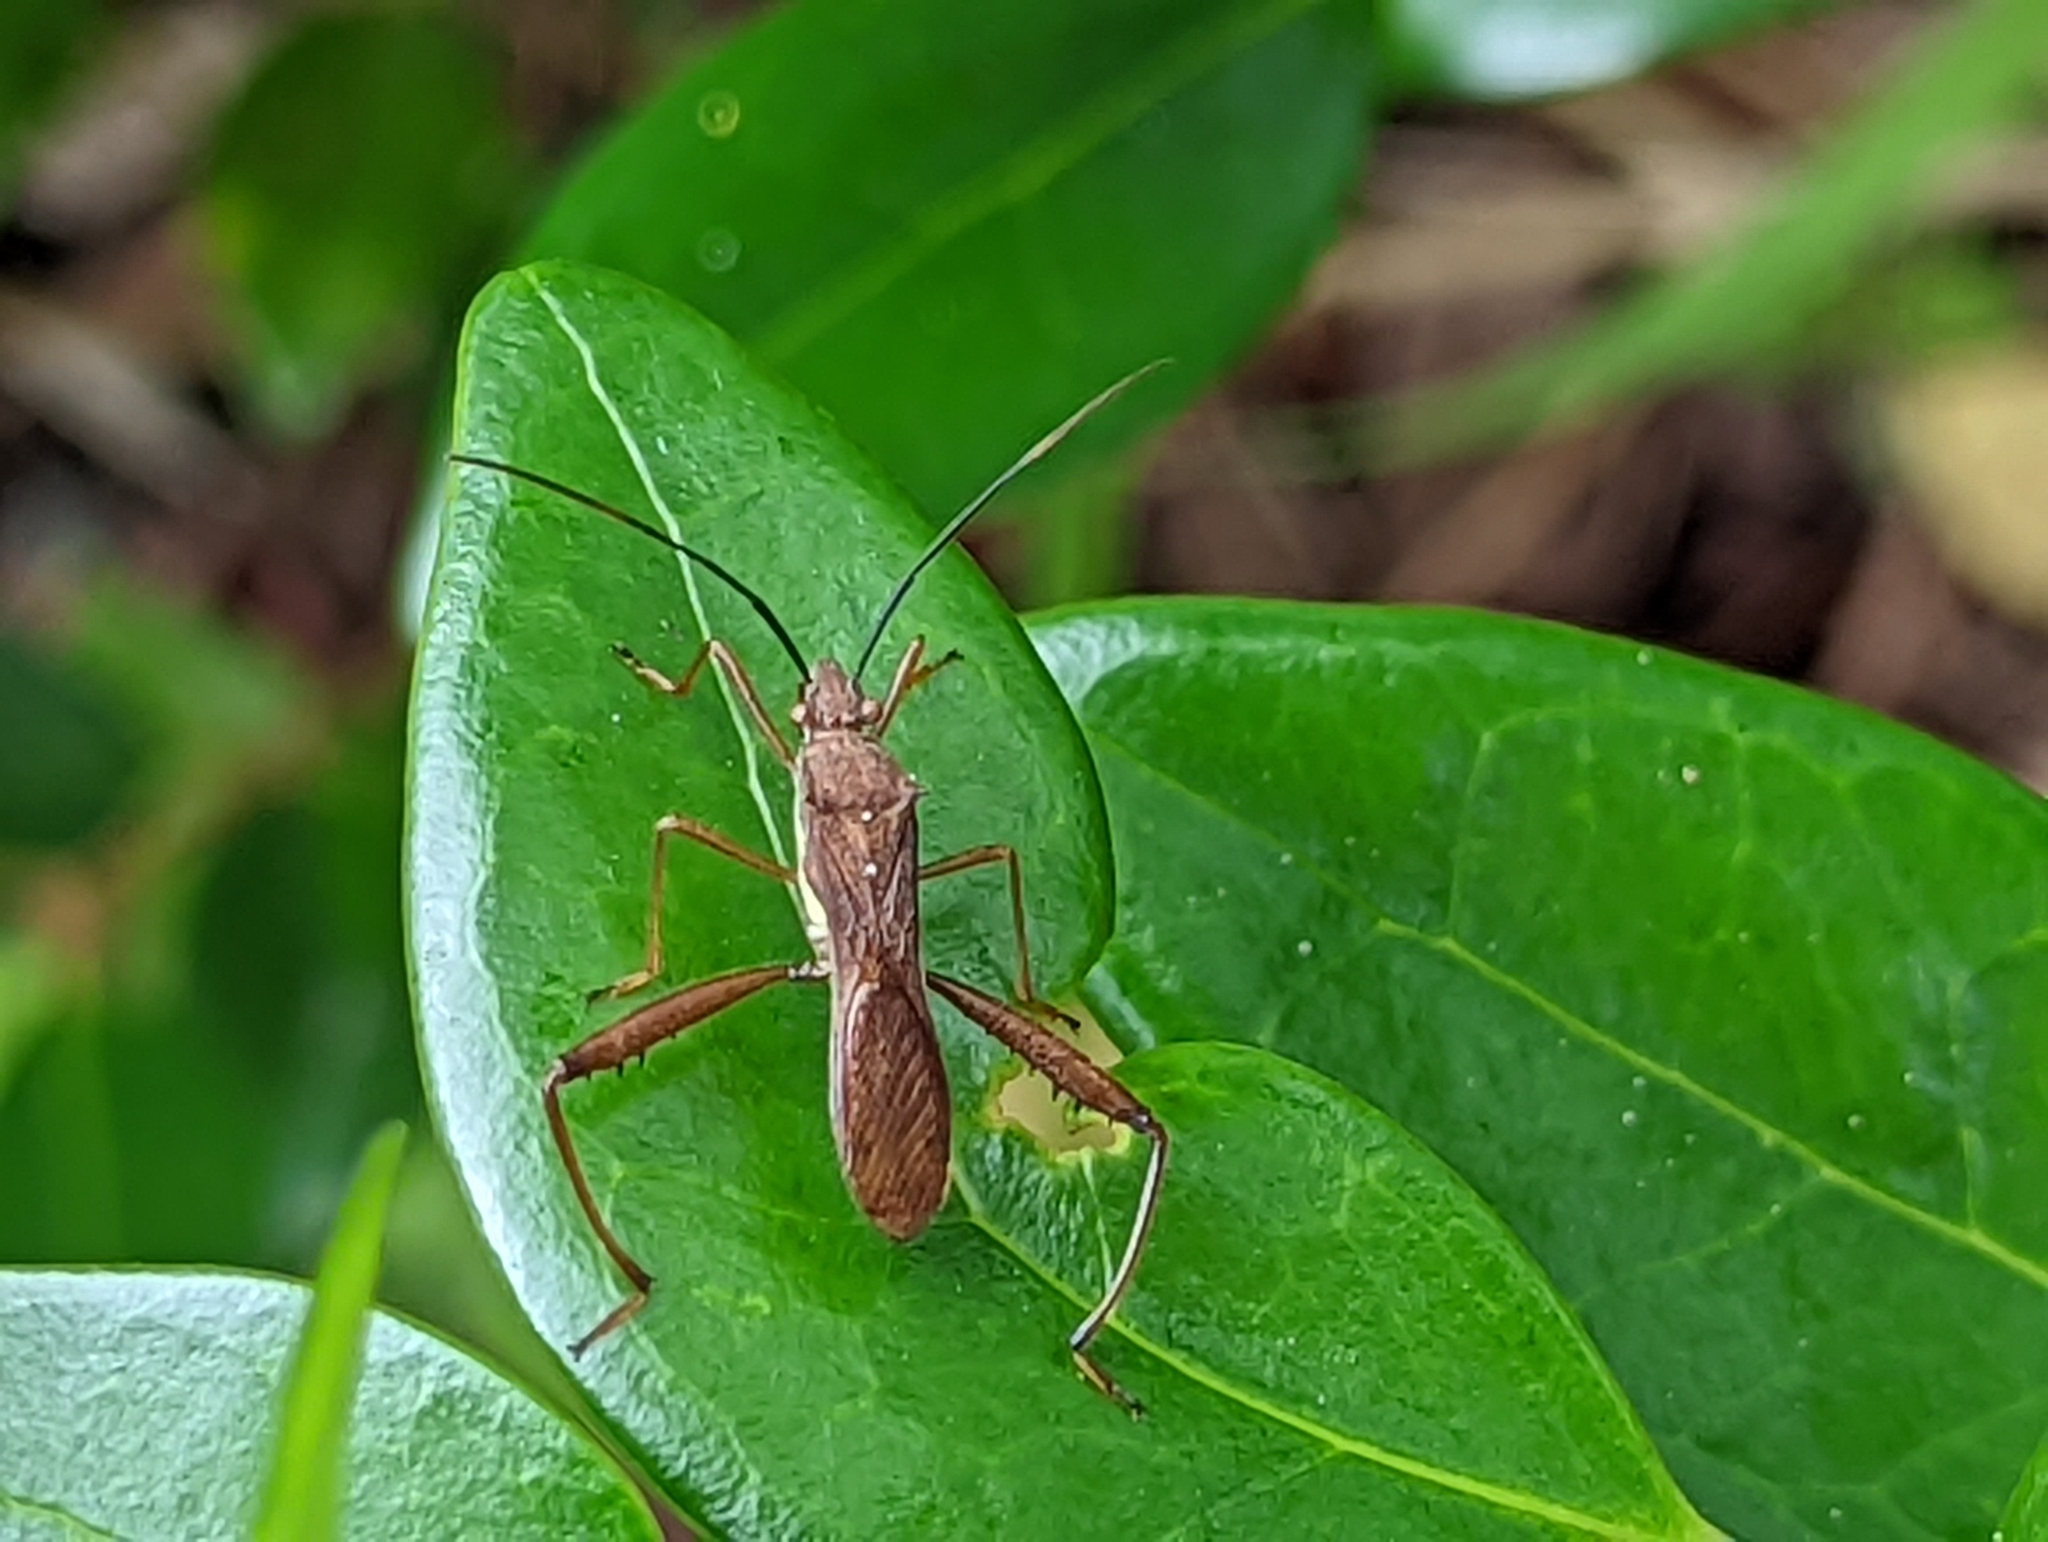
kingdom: Animalia
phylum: Arthropoda
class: Insecta
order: Hemiptera
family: Alydidae
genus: Riptortus
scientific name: Riptortus linearis
